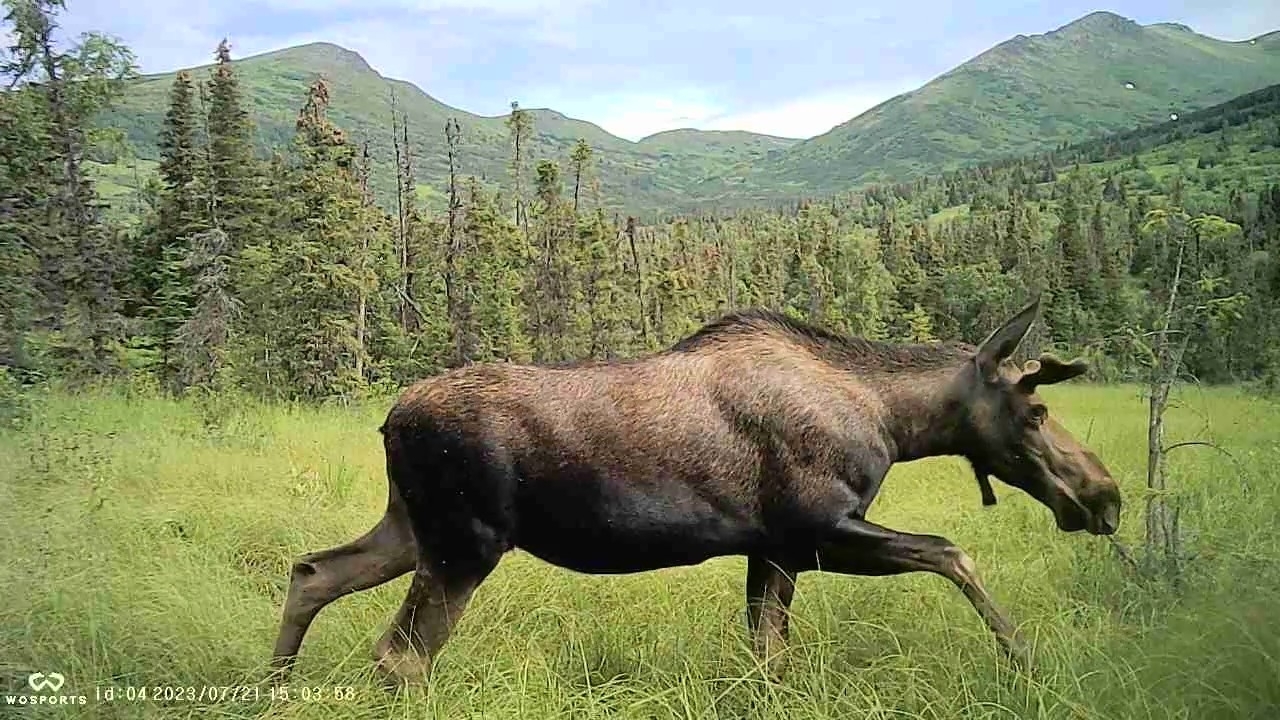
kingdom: Animalia
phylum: Chordata
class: Mammalia
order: Artiodactyla
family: Cervidae
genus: Alces
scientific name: Alces alces
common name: Moose
